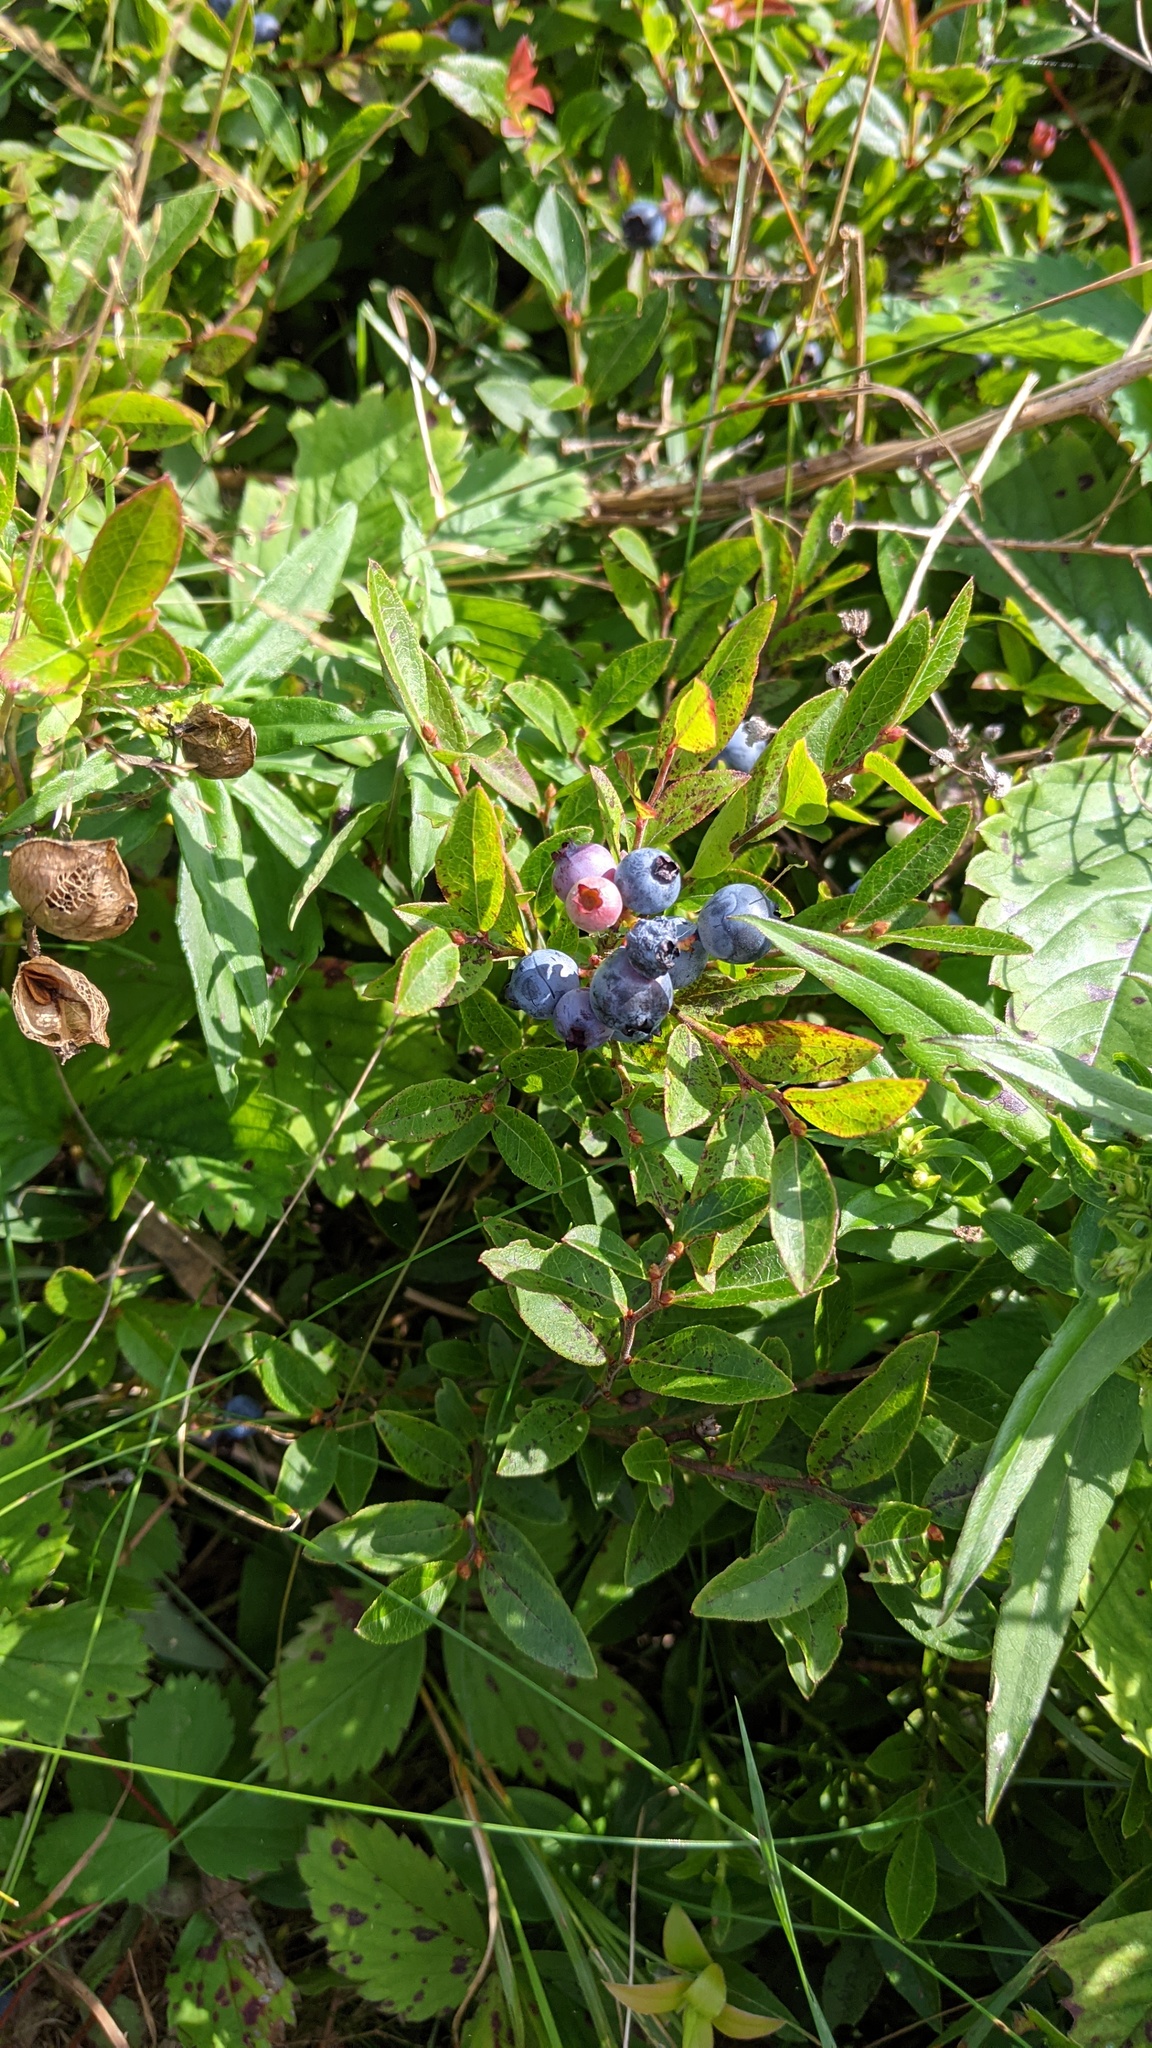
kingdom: Plantae
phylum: Tracheophyta
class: Magnoliopsida
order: Ericales
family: Ericaceae
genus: Vaccinium
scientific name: Vaccinium angustifolium
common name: Early lowbush blueberry
